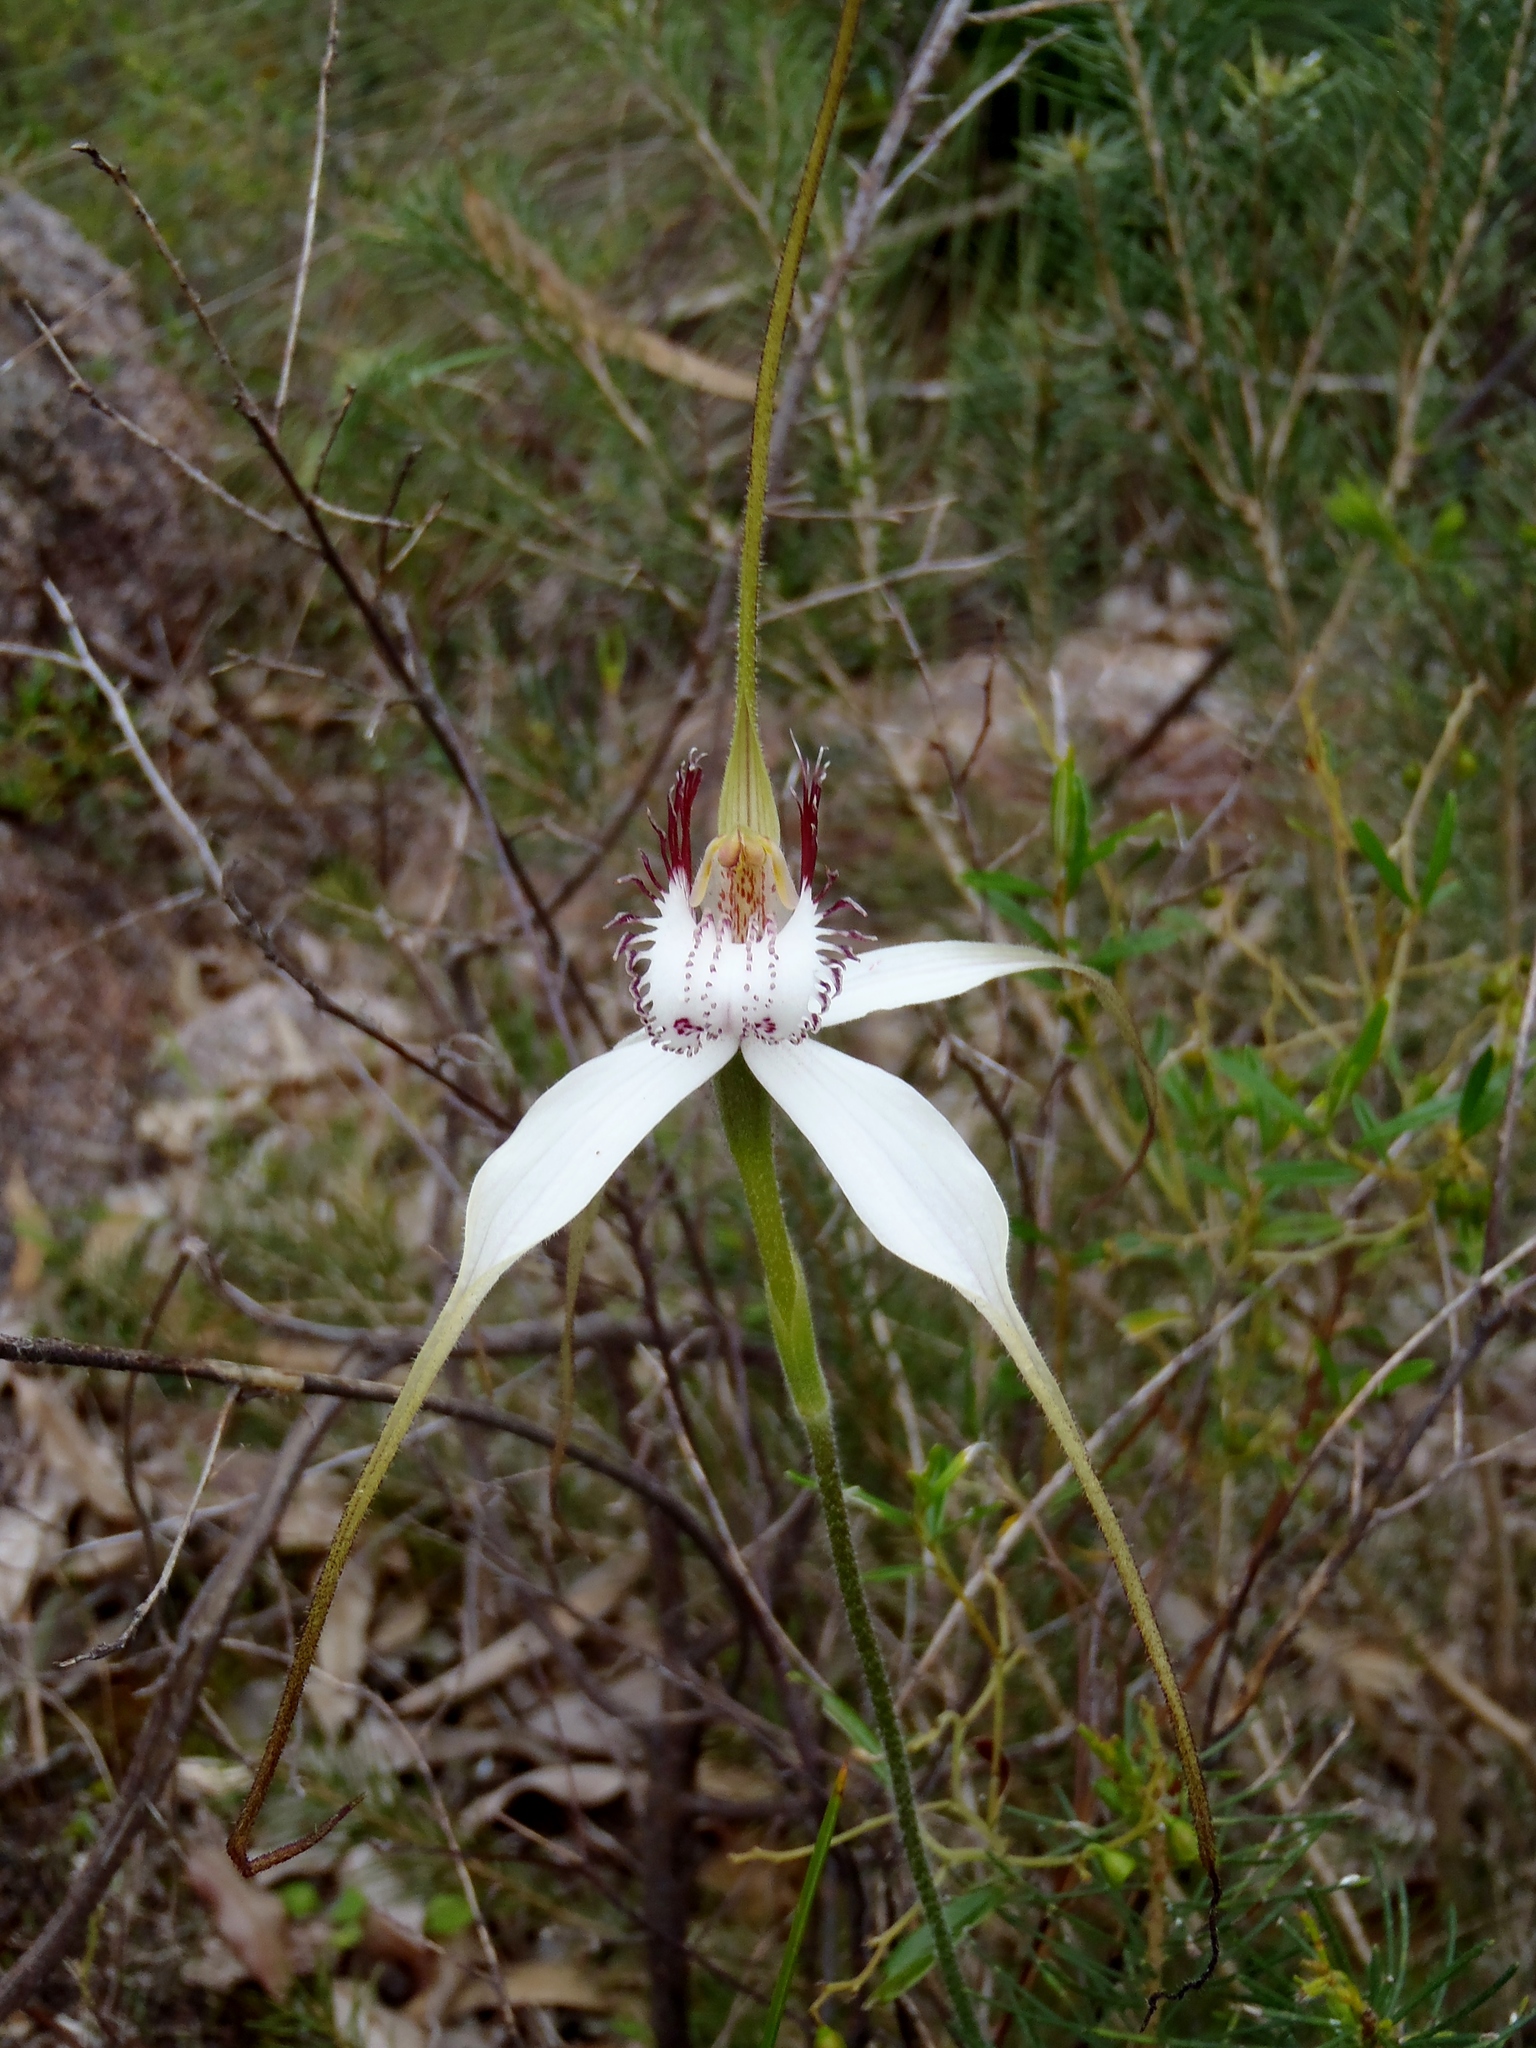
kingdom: Plantae
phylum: Tracheophyta
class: Liliopsida
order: Asparagales
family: Orchidaceae
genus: Caladenia
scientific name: Caladenia longicauda
